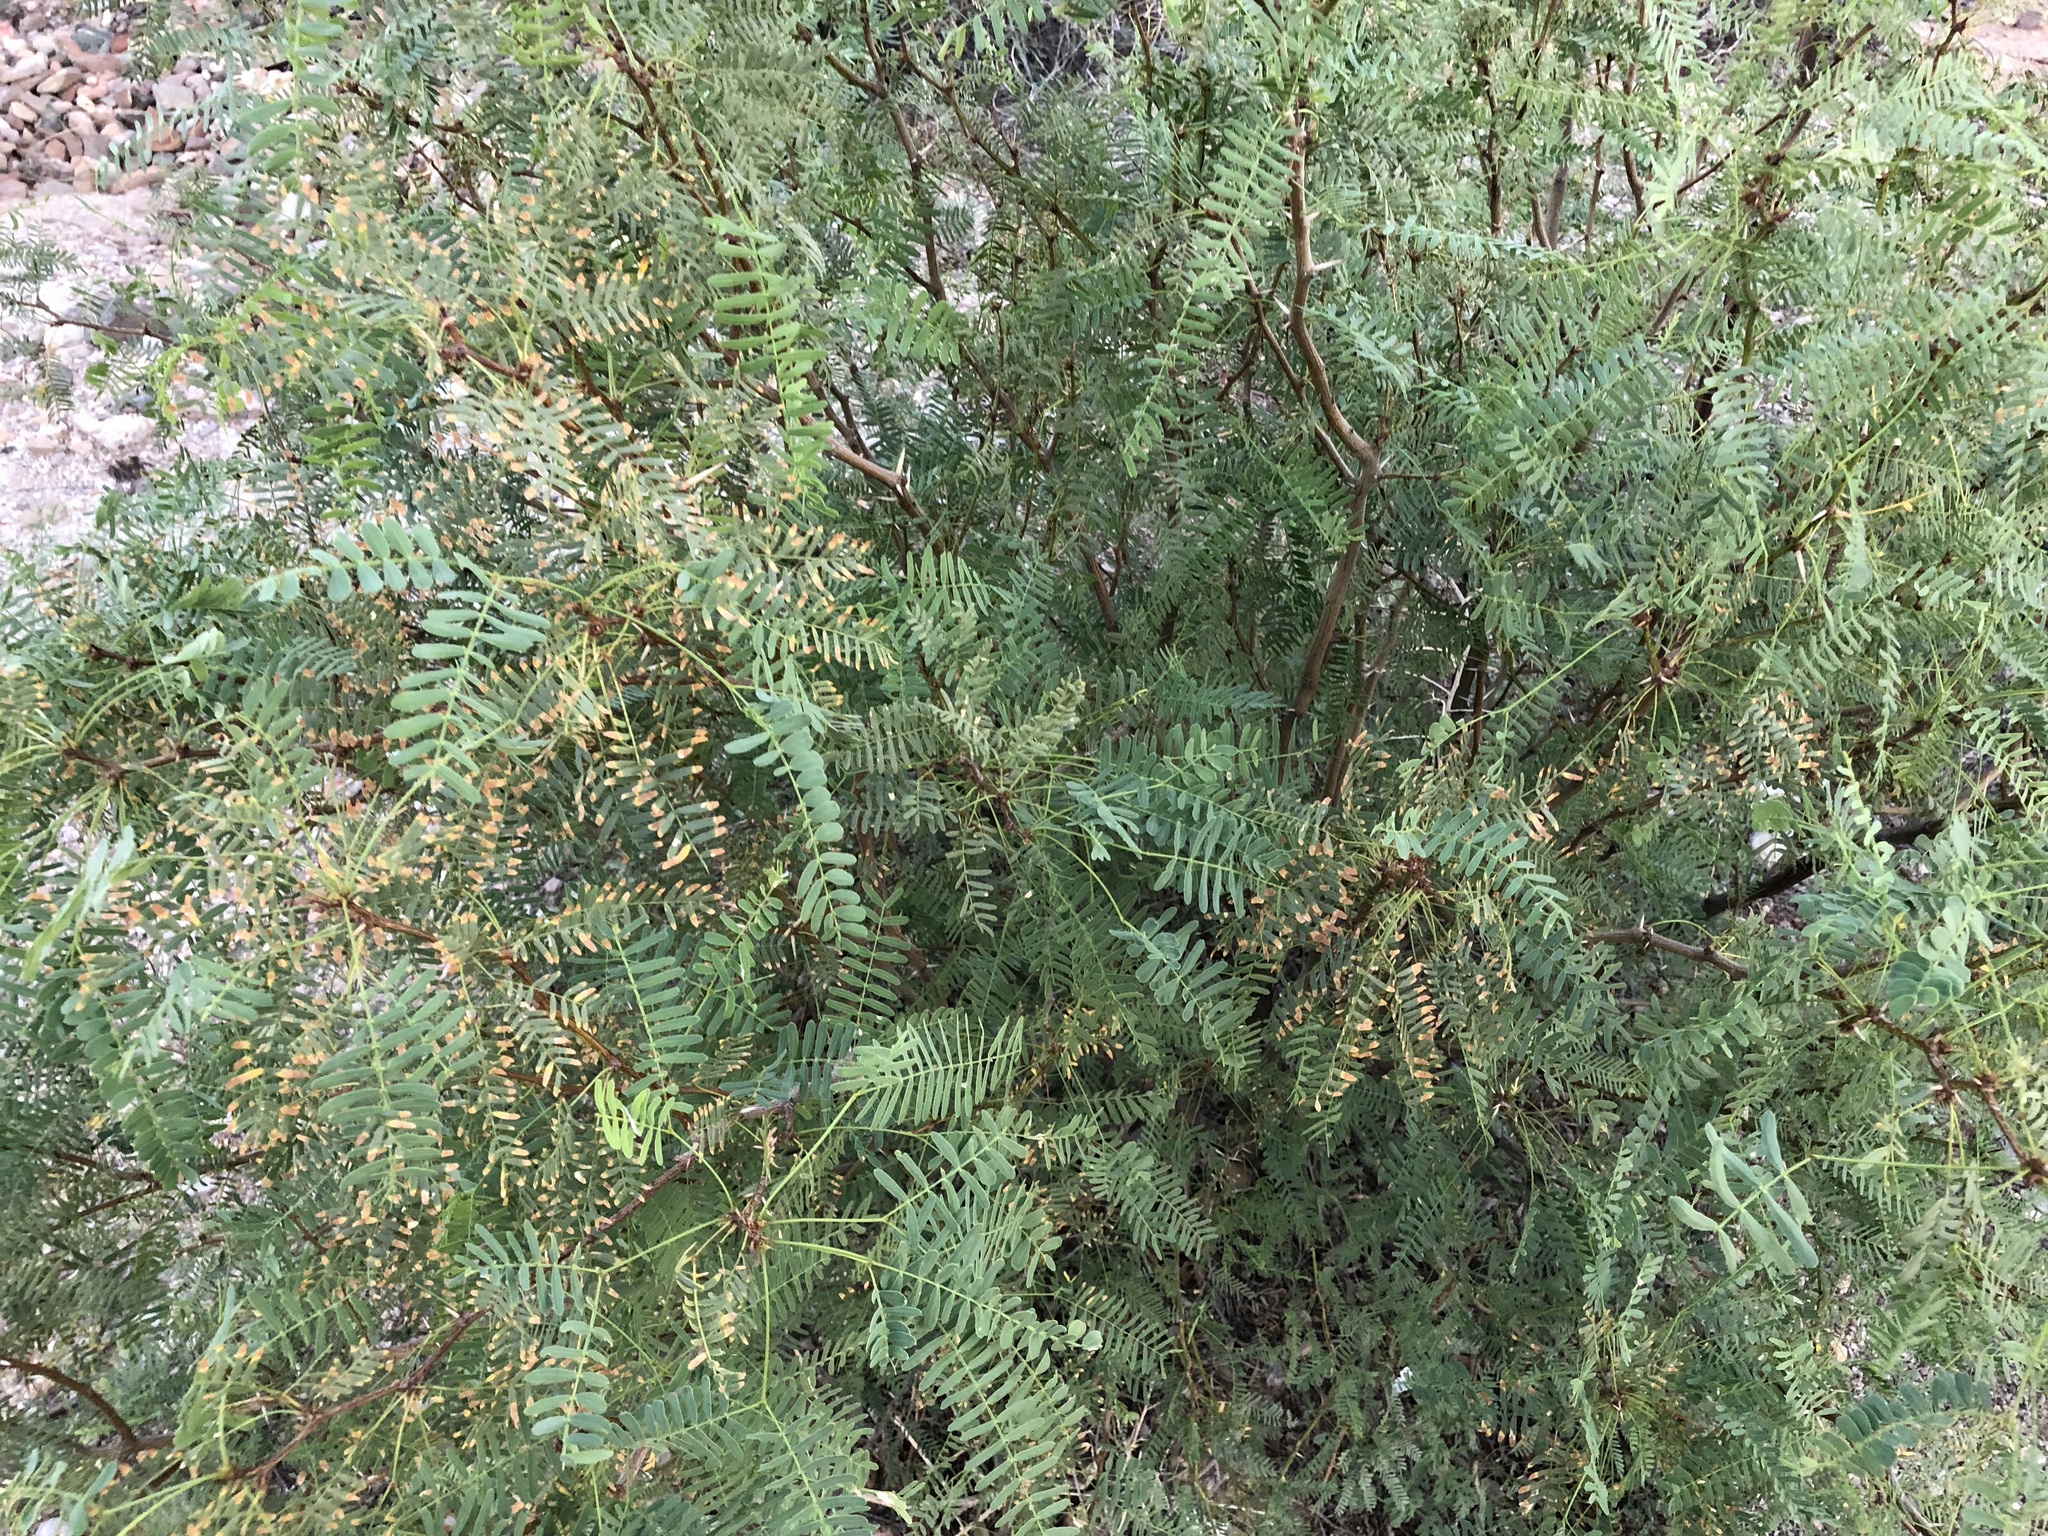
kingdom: Plantae
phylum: Tracheophyta
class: Magnoliopsida
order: Fabales
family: Fabaceae
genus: Prosopis
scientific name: Prosopis glandulosa
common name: Honey mesquite
